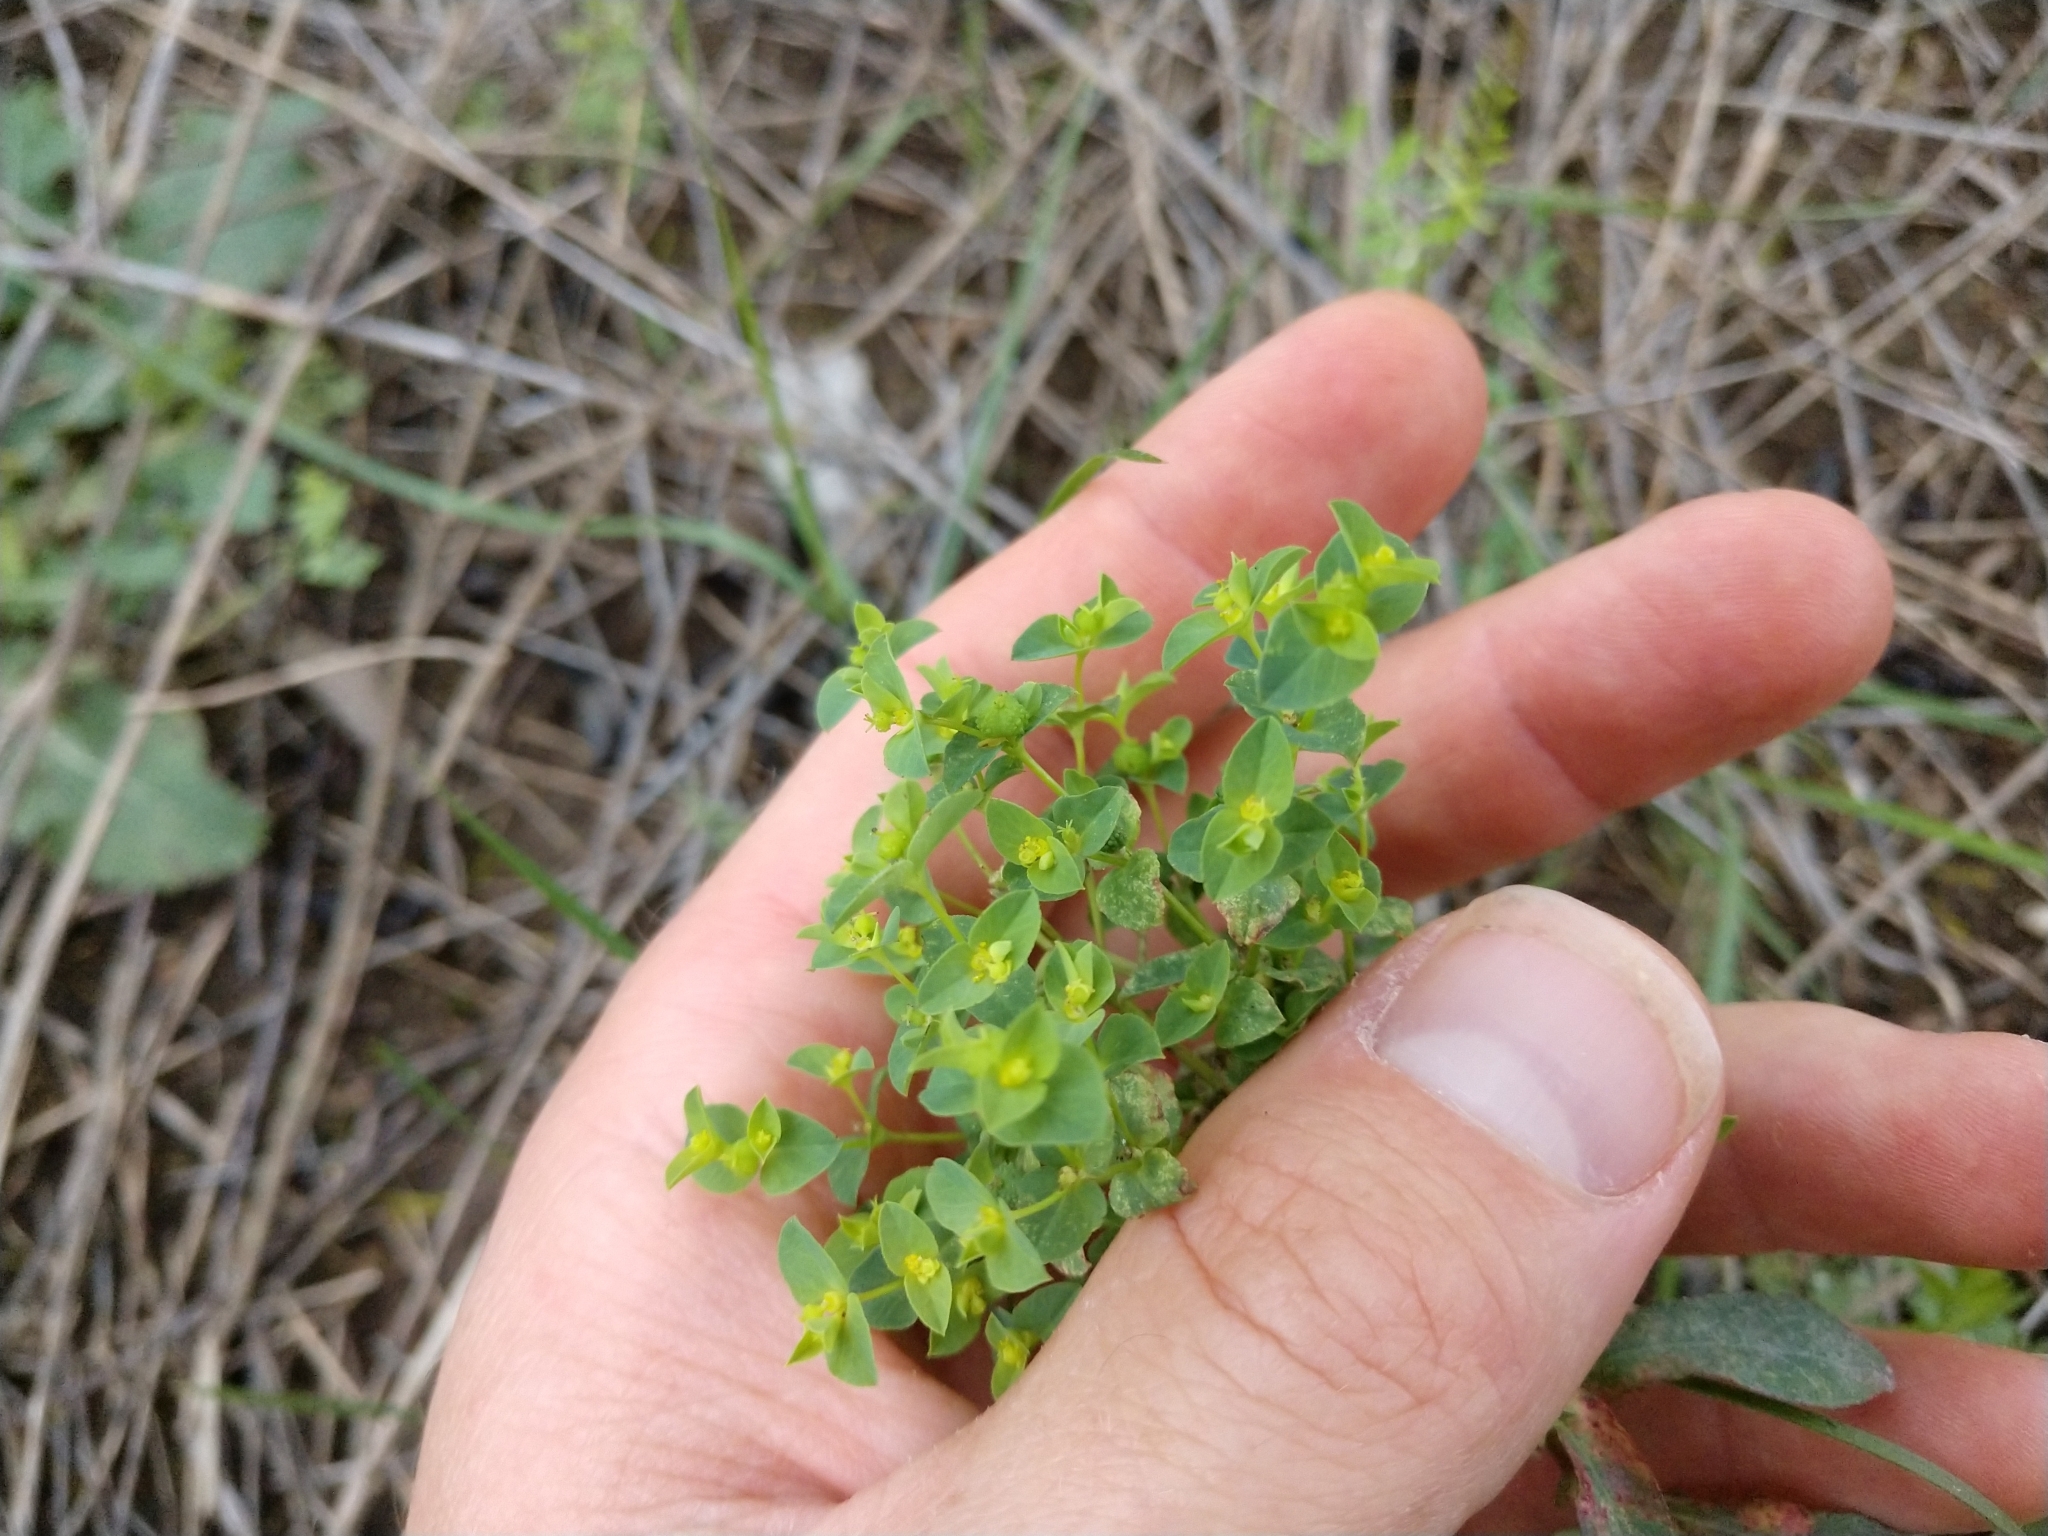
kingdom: Plantae
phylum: Tracheophyta
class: Magnoliopsida
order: Malpighiales
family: Euphorbiaceae
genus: Euphorbia
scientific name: Euphorbia spathulata
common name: Blunt spurge
